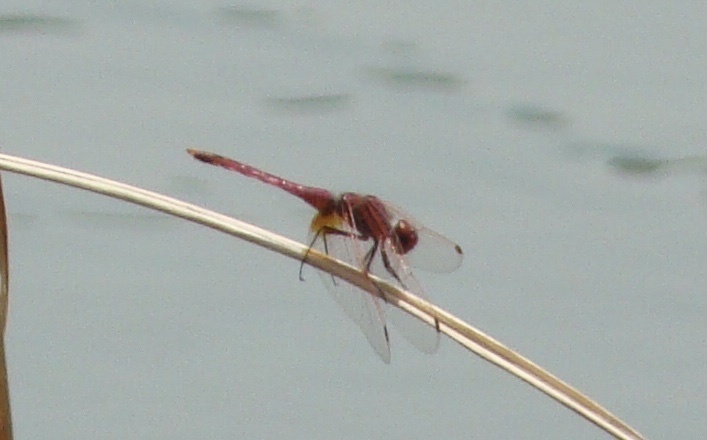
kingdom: Animalia
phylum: Arthropoda
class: Insecta
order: Odonata
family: Libellulidae
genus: Trithemis
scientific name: Trithemis annulata
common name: Violet dropwing
